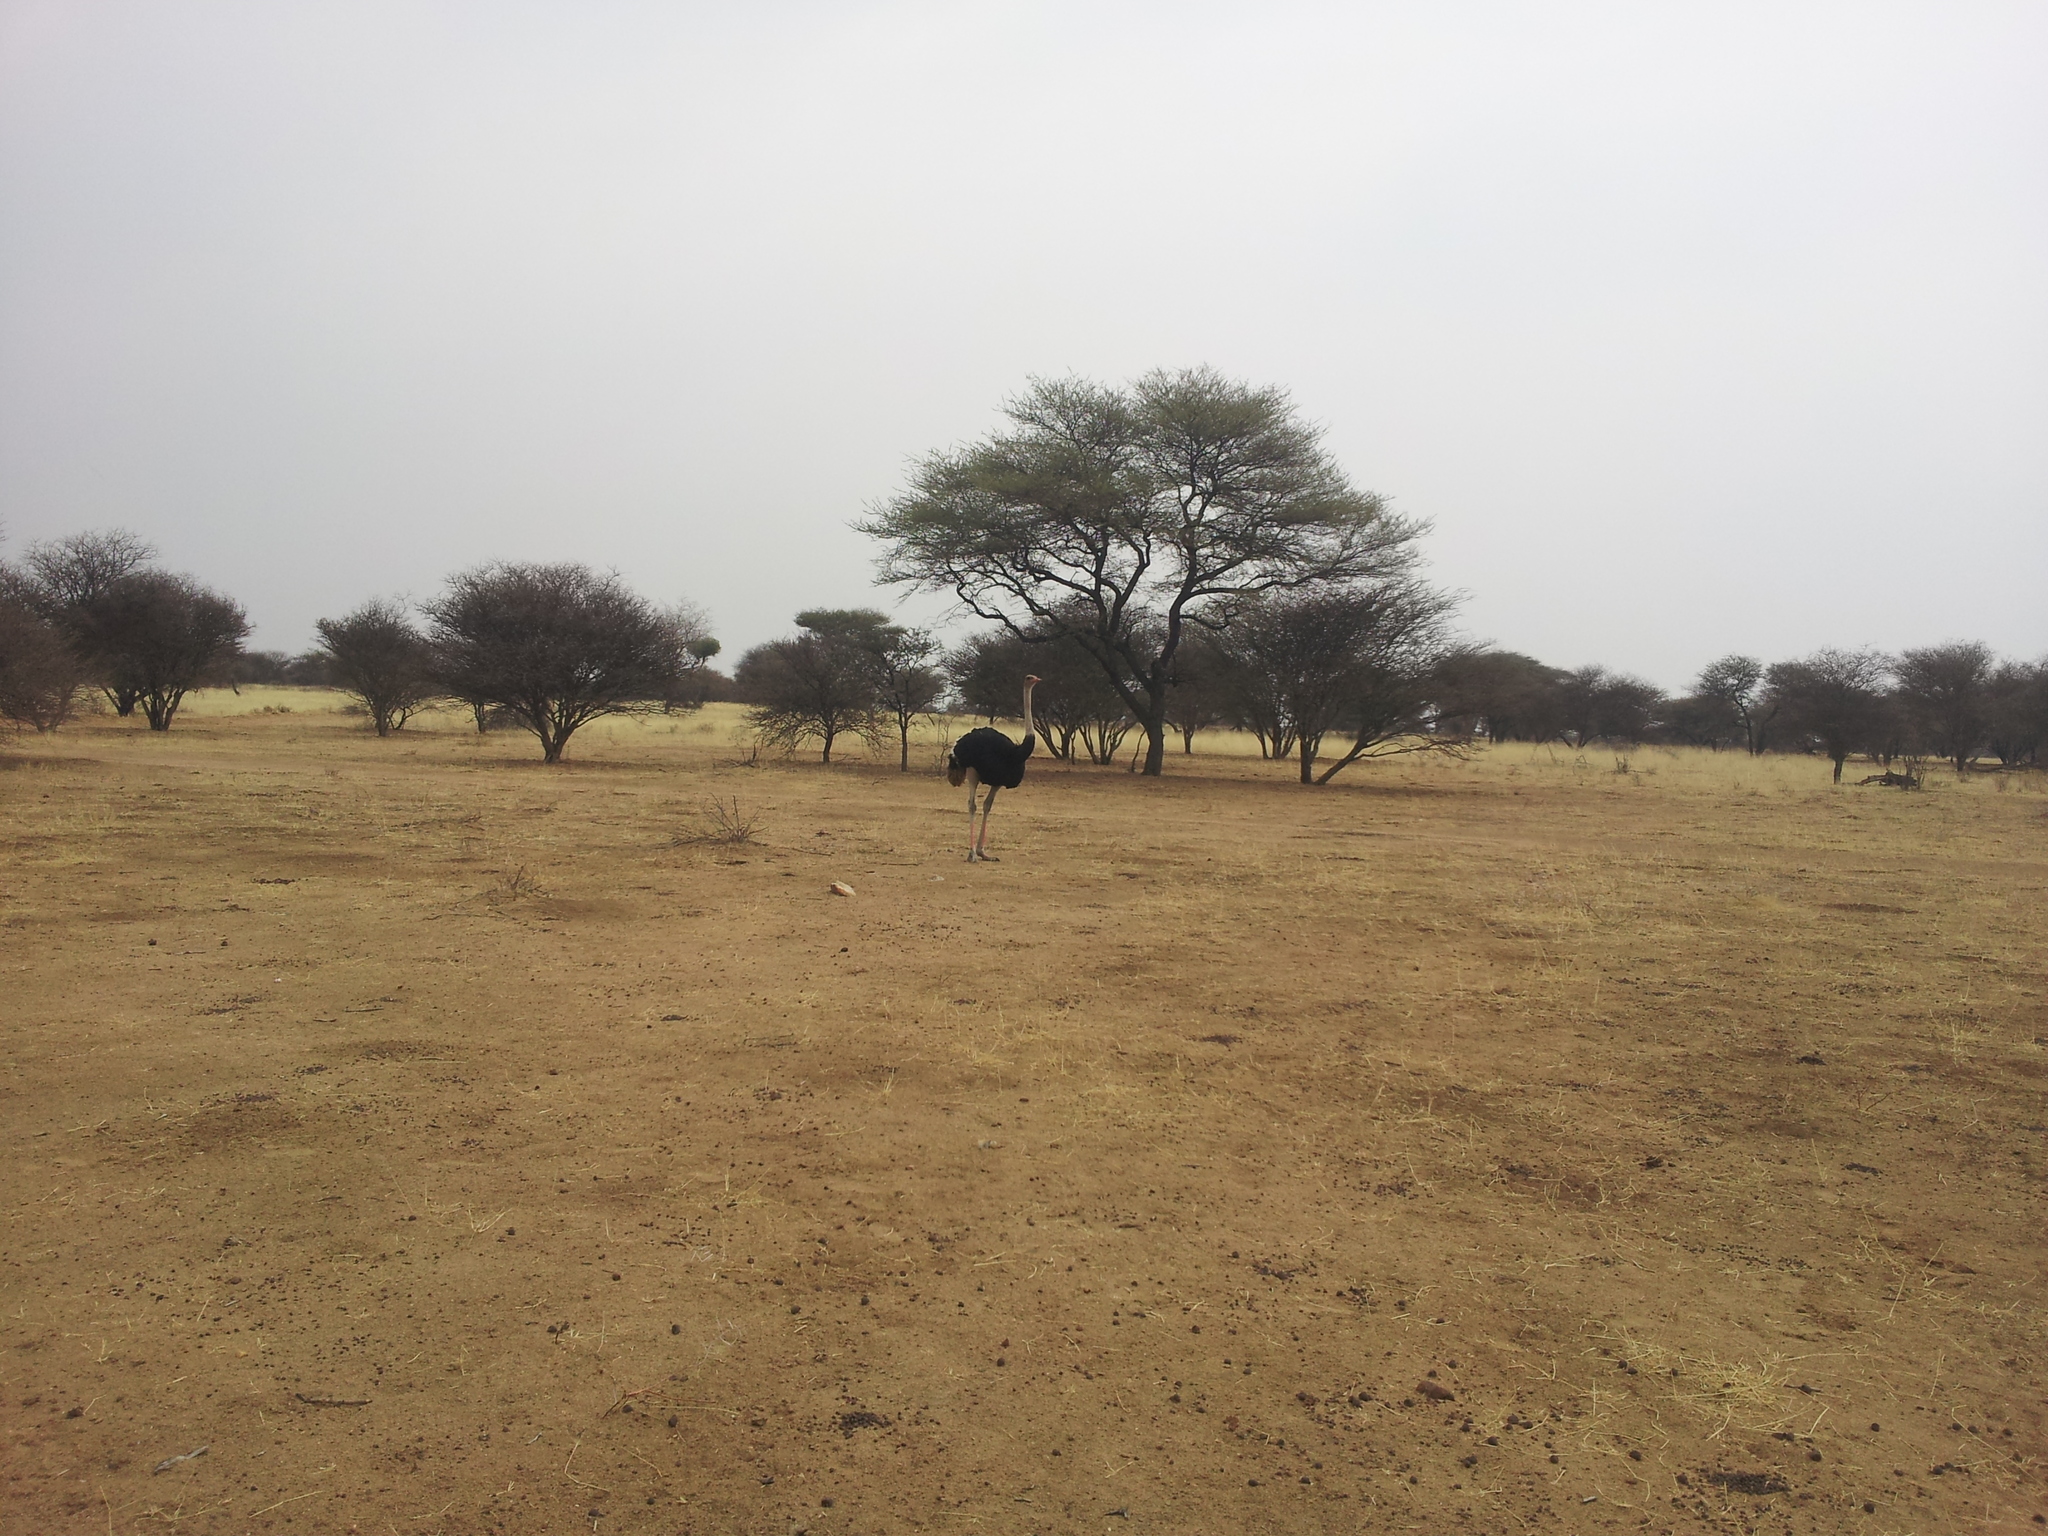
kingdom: Animalia
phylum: Chordata
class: Aves
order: Struthioniformes
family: Struthionidae
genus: Struthio
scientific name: Struthio camelus
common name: Common ostrich
